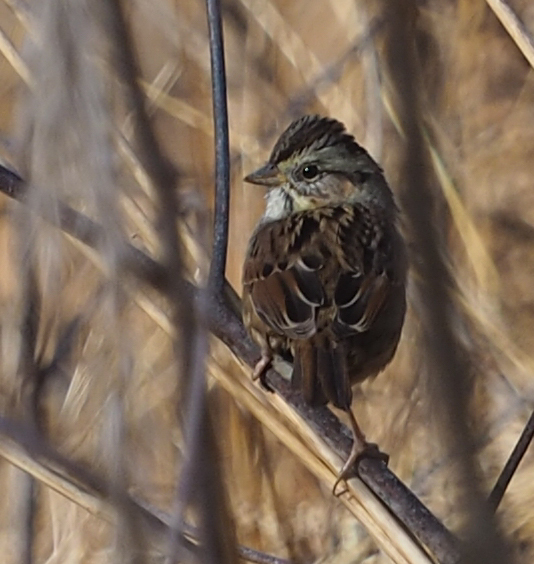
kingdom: Animalia
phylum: Chordata
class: Aves
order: Passeriformes
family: Passerellidae
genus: Melospiza
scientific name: Melospiza georgiana
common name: Swamp sparrow
